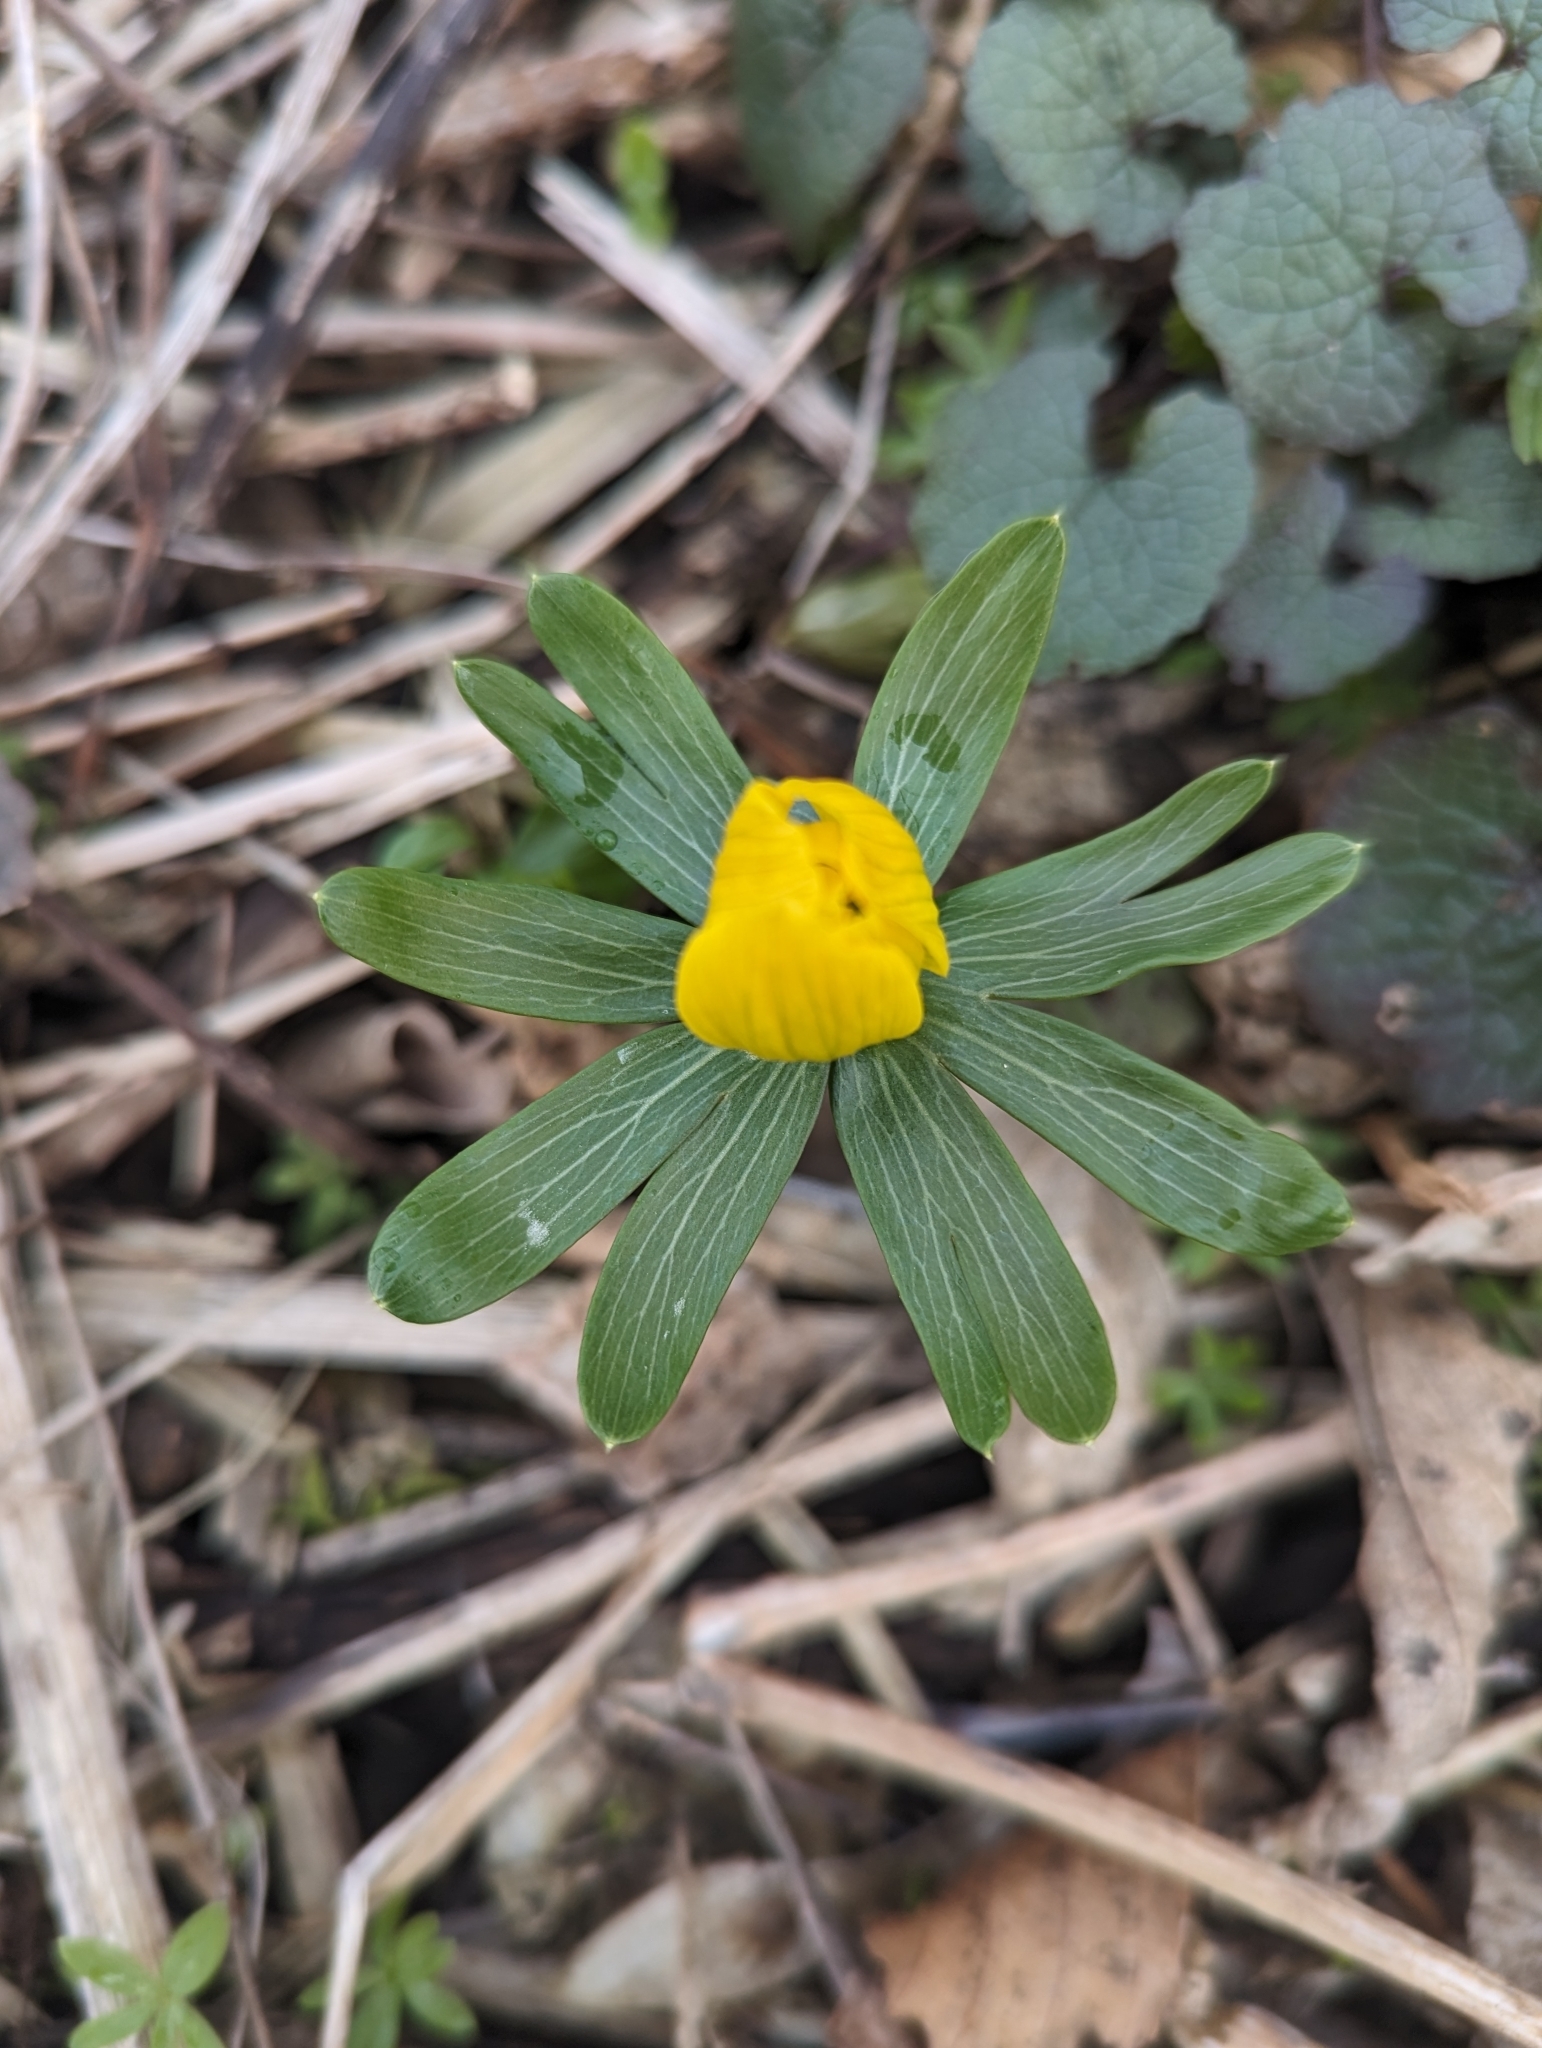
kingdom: Plantae
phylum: Tracheophyta
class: Magnoliopsida
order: Ranunculales
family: Ranunculaceae
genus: Eranthis
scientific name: Eranthis hyemalis
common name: Winter aconite
